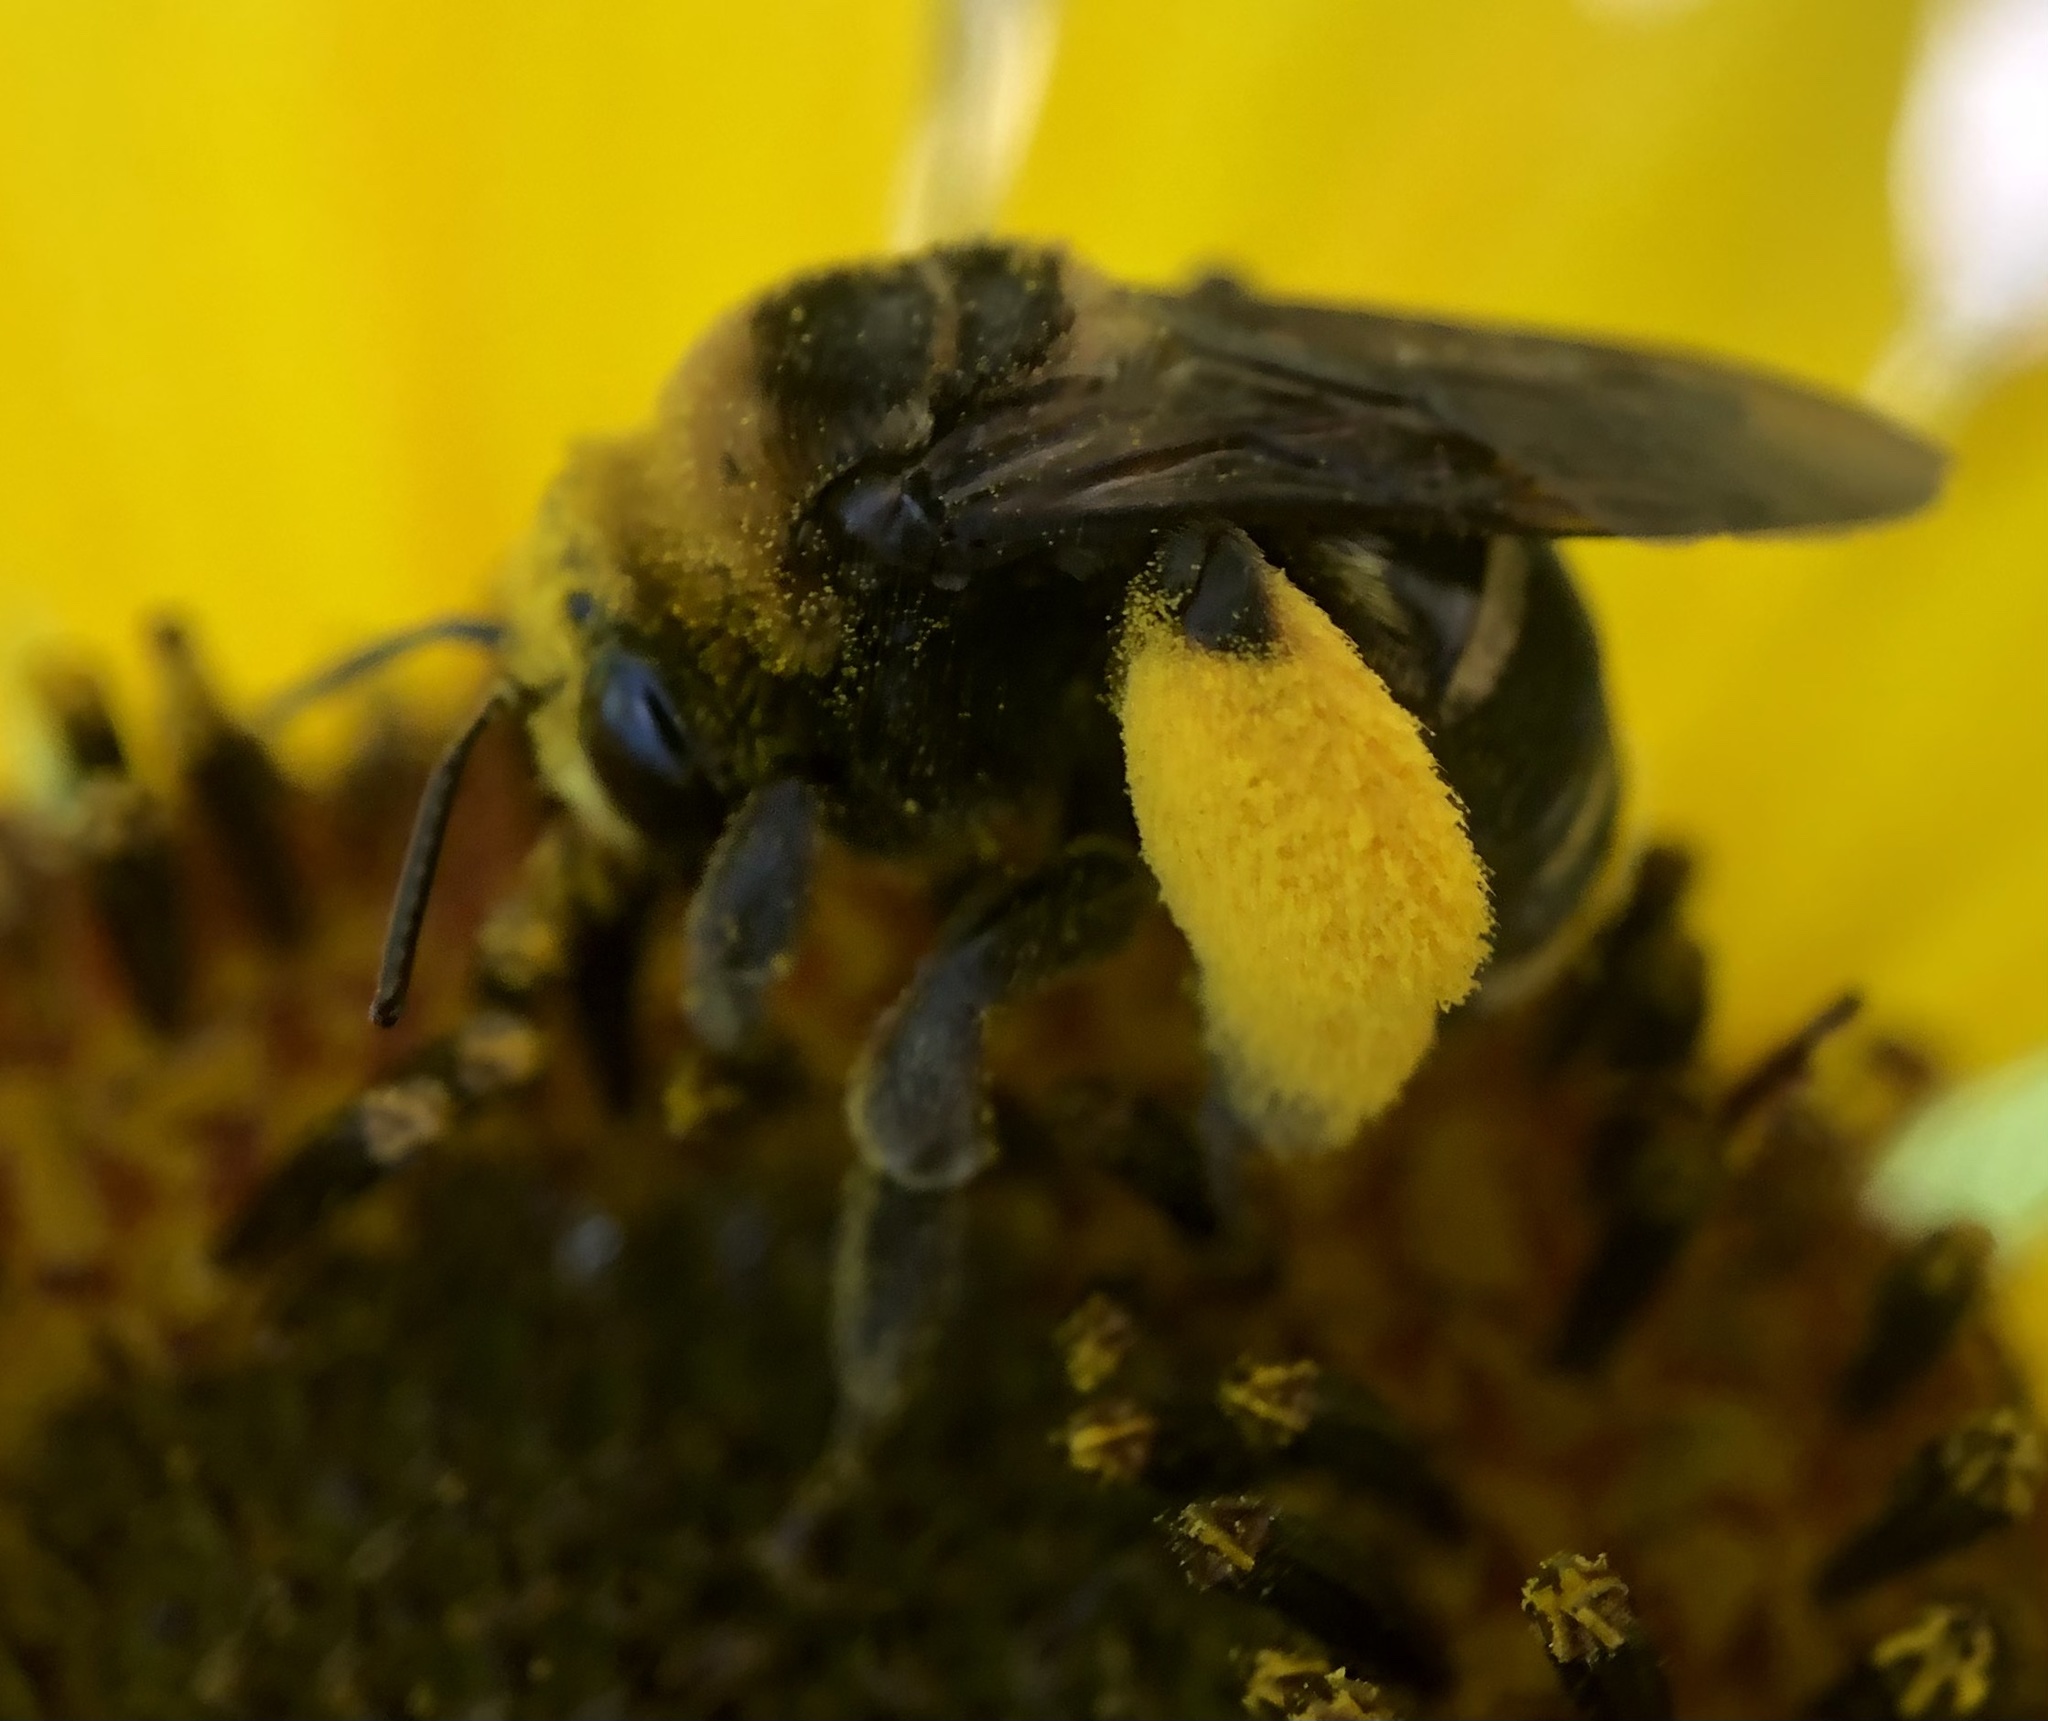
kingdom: Animalia
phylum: Arthropoda
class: Insecta
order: Hymenoptera
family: Apidae
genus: Svastra
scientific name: Svastra obliqua
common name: Oblique longhorn
